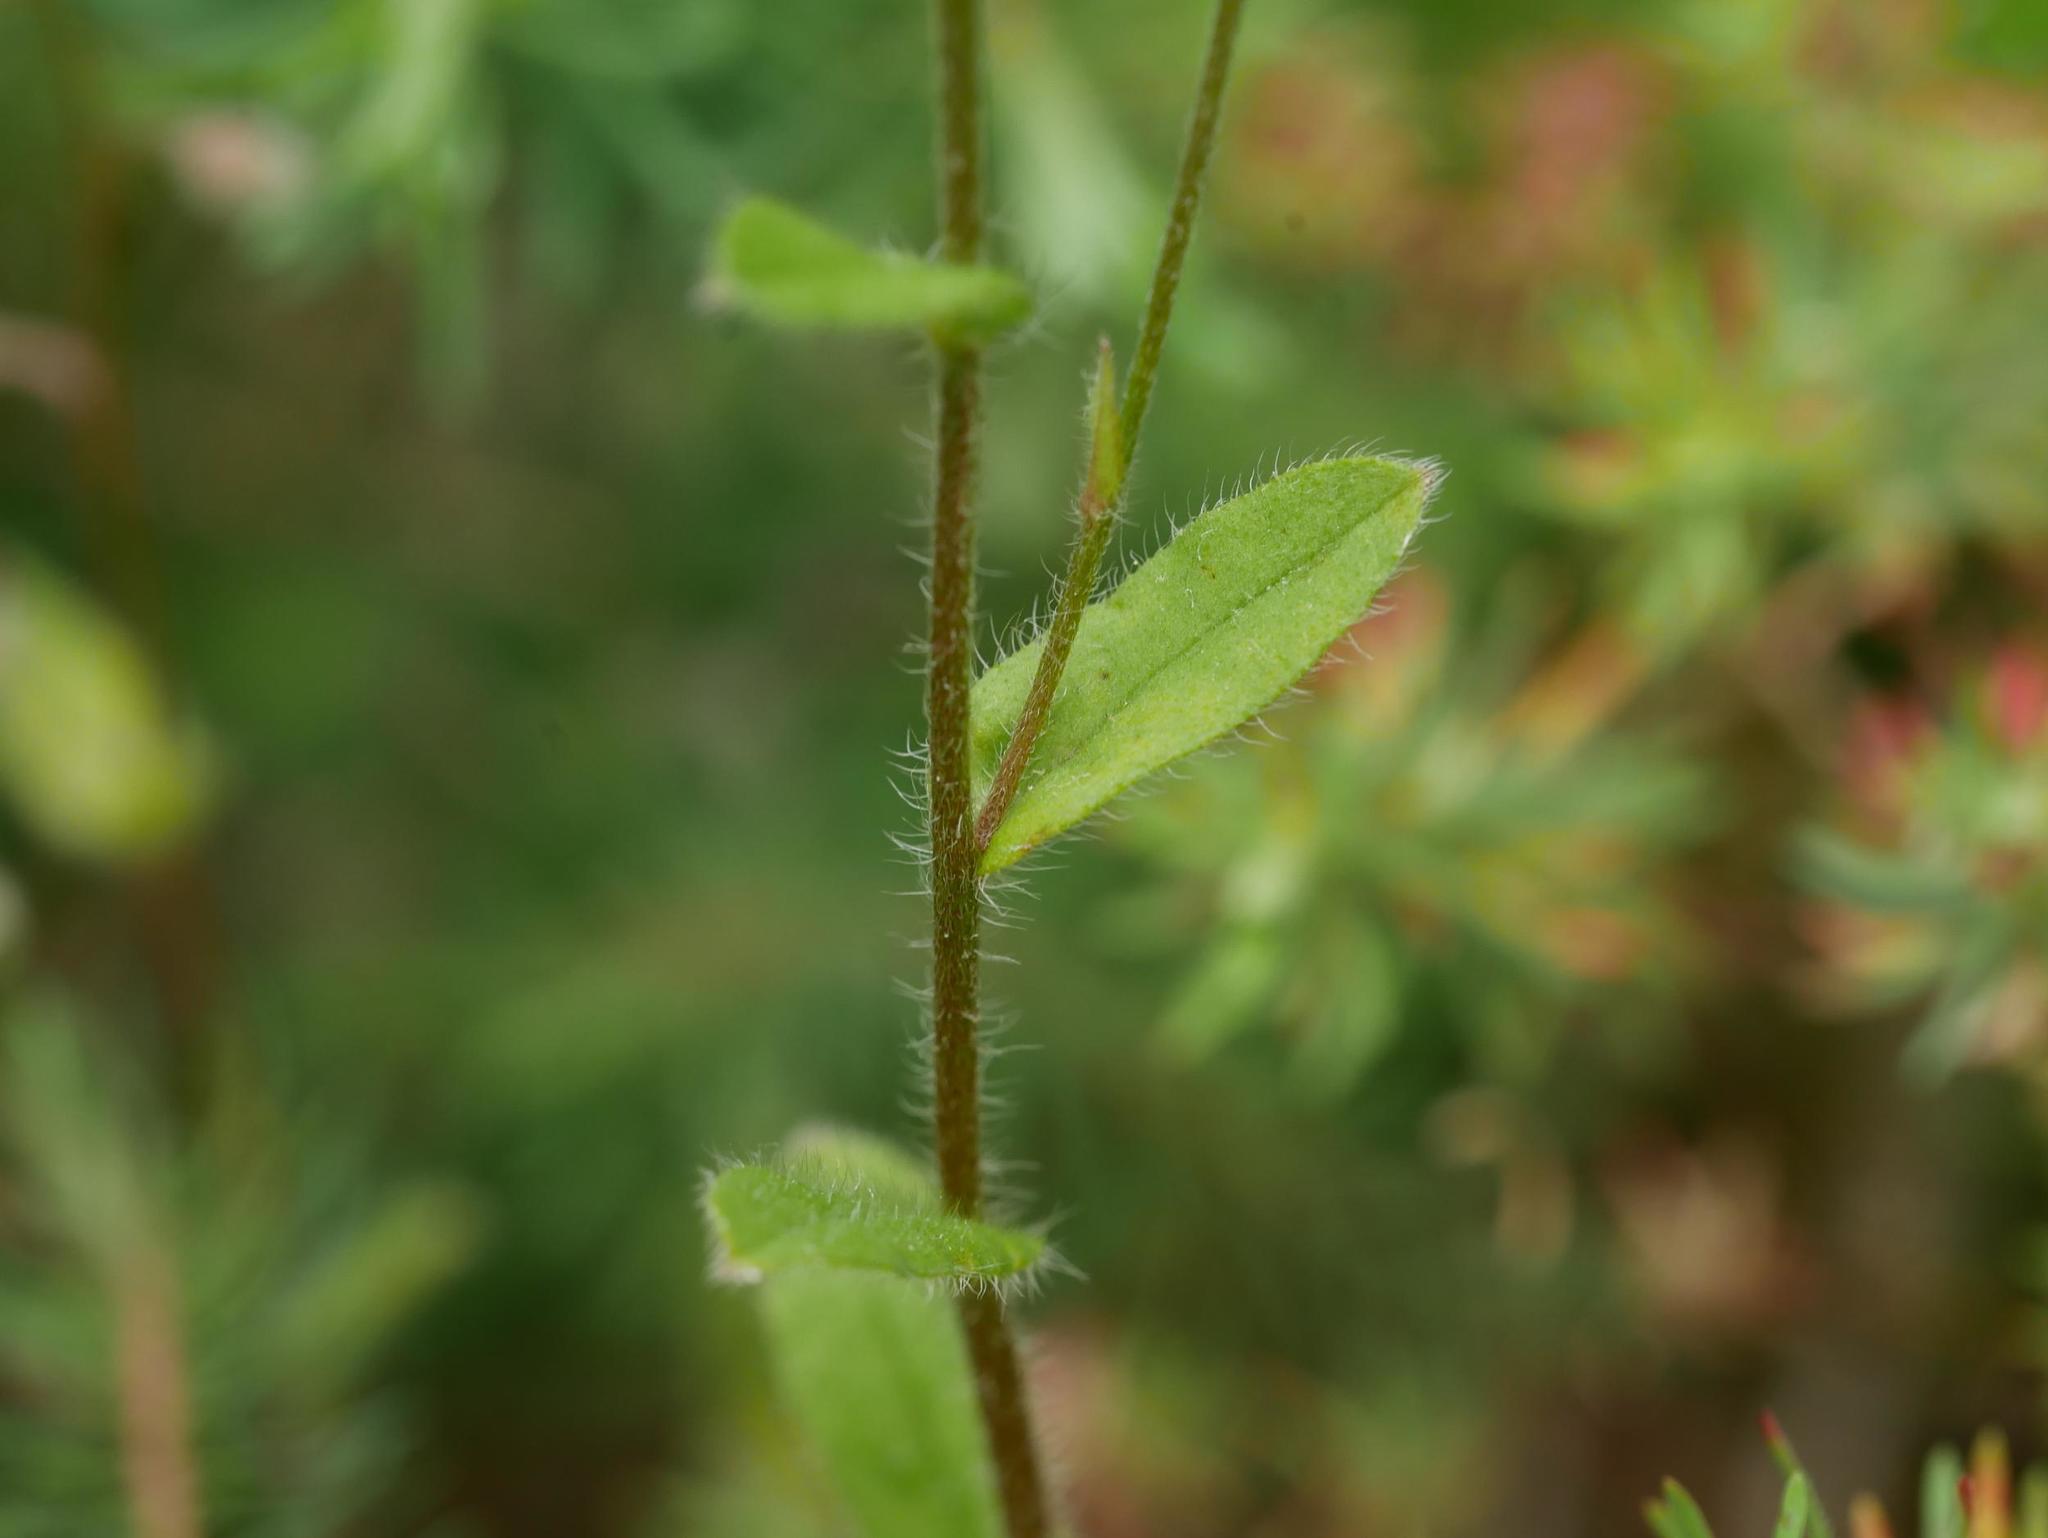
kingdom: Plantae
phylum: Tracheophyta
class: Magnoliopsida
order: Boraginales
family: Boraginaceae
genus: Myosotis
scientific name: Myosotis arvensis
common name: Field forget-me-not
